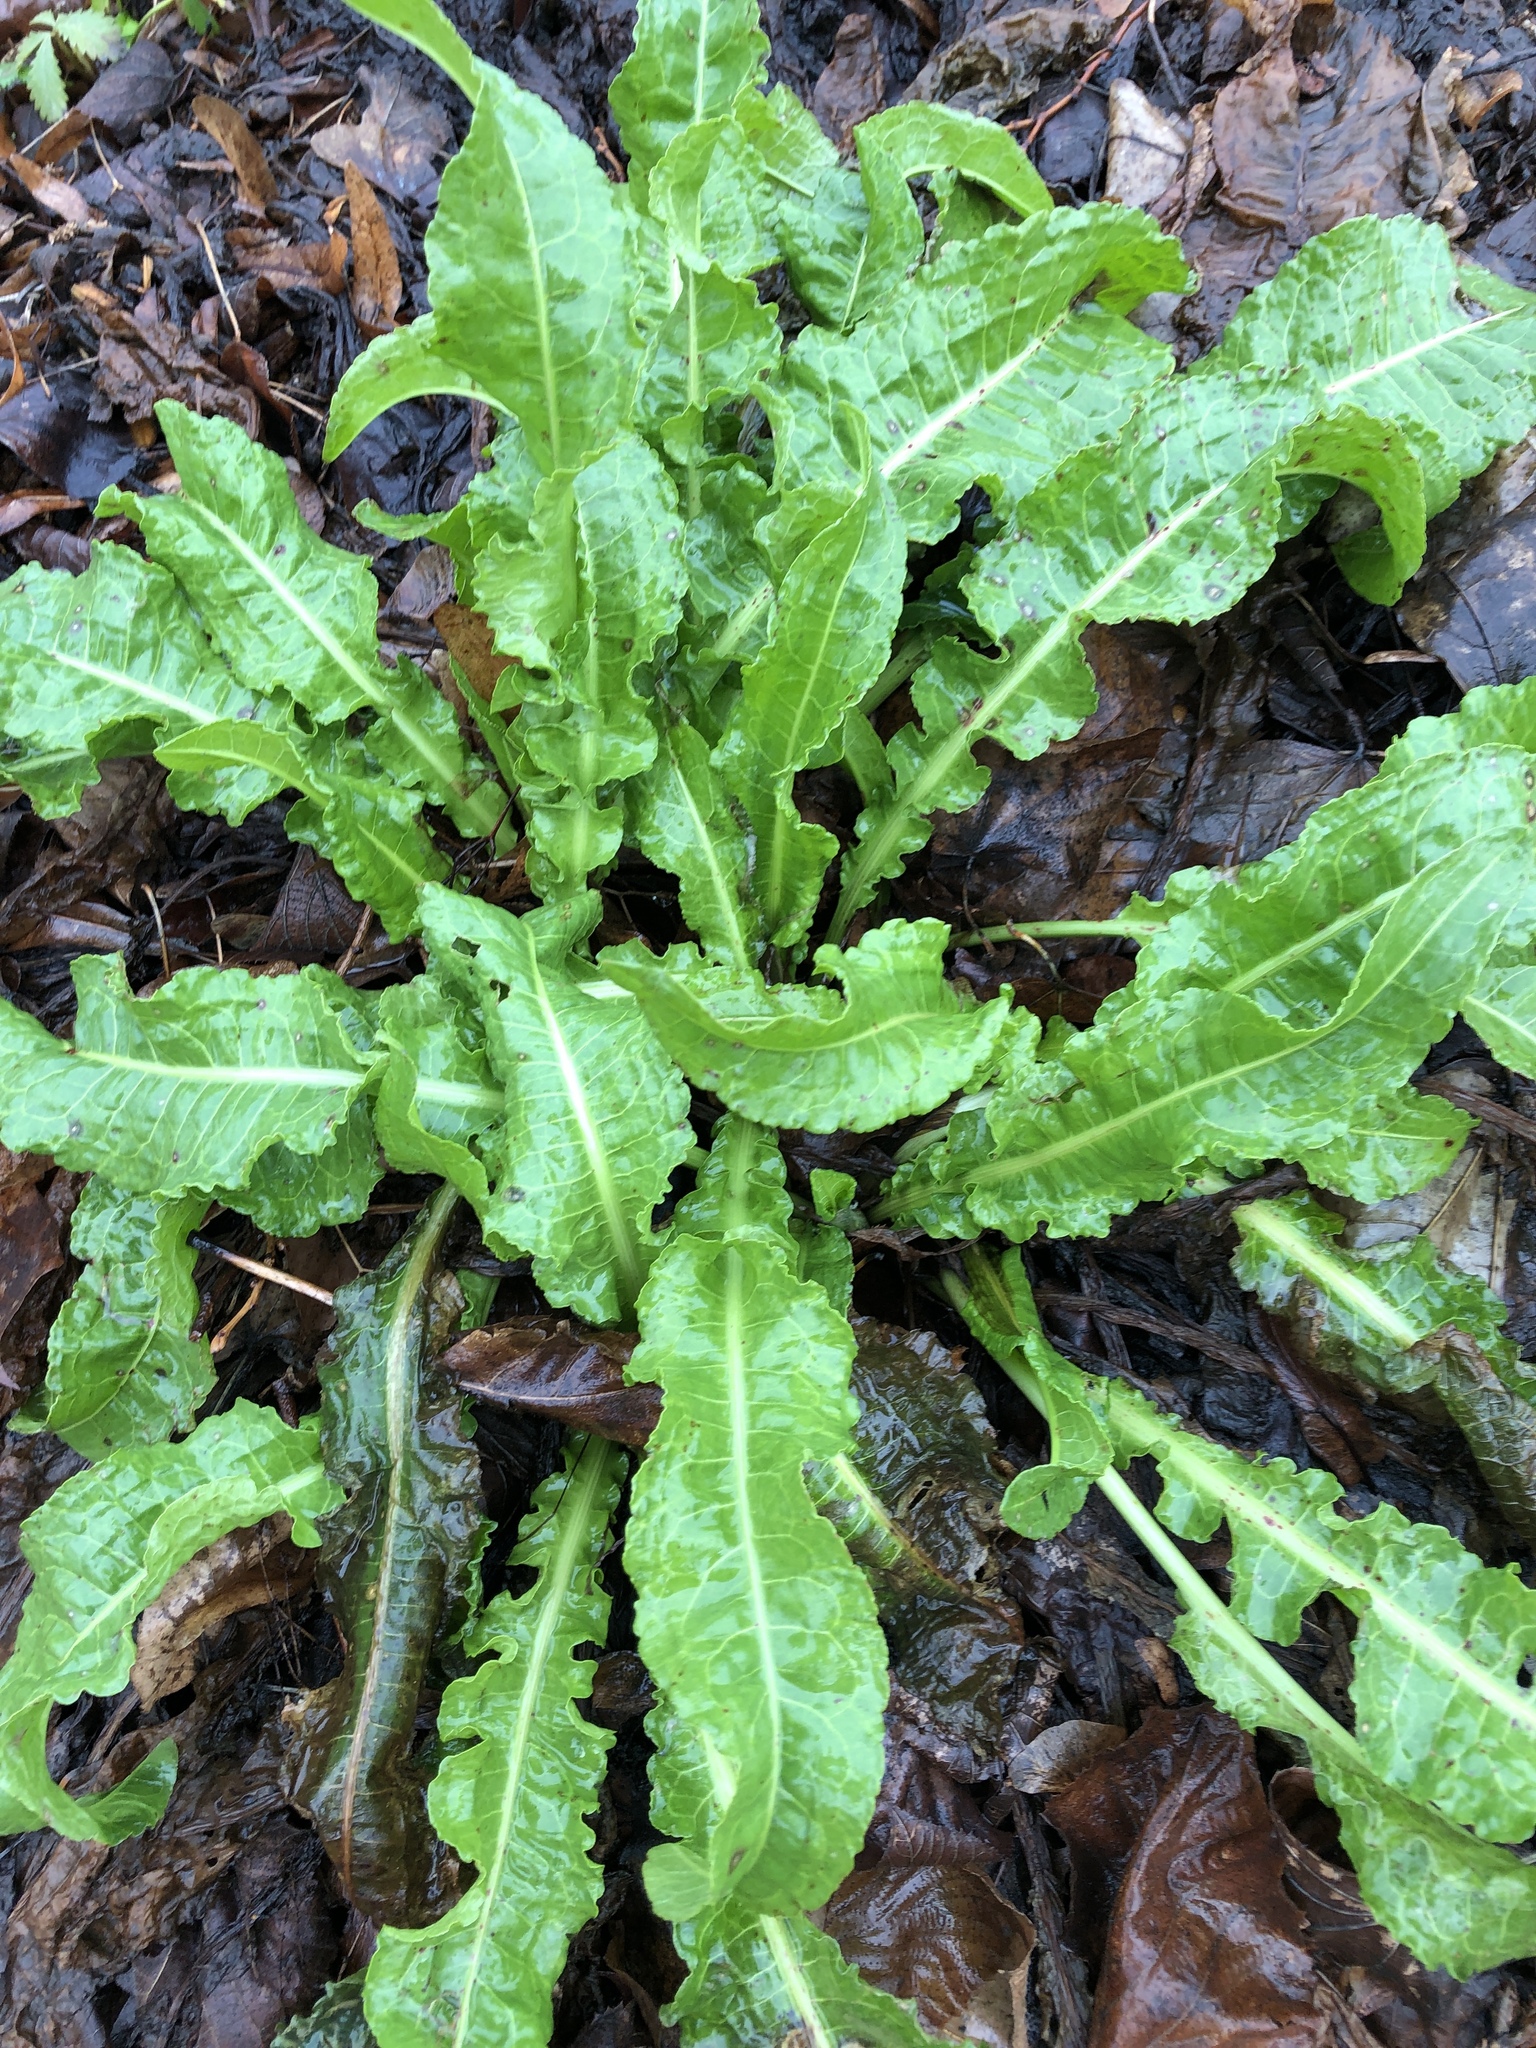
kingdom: Plantae
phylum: Tracheophyta
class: Magnoliopsida
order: Caryophyllales
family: Polygonaceae
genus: Rumex
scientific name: Rumex crispus
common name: Curled dock
